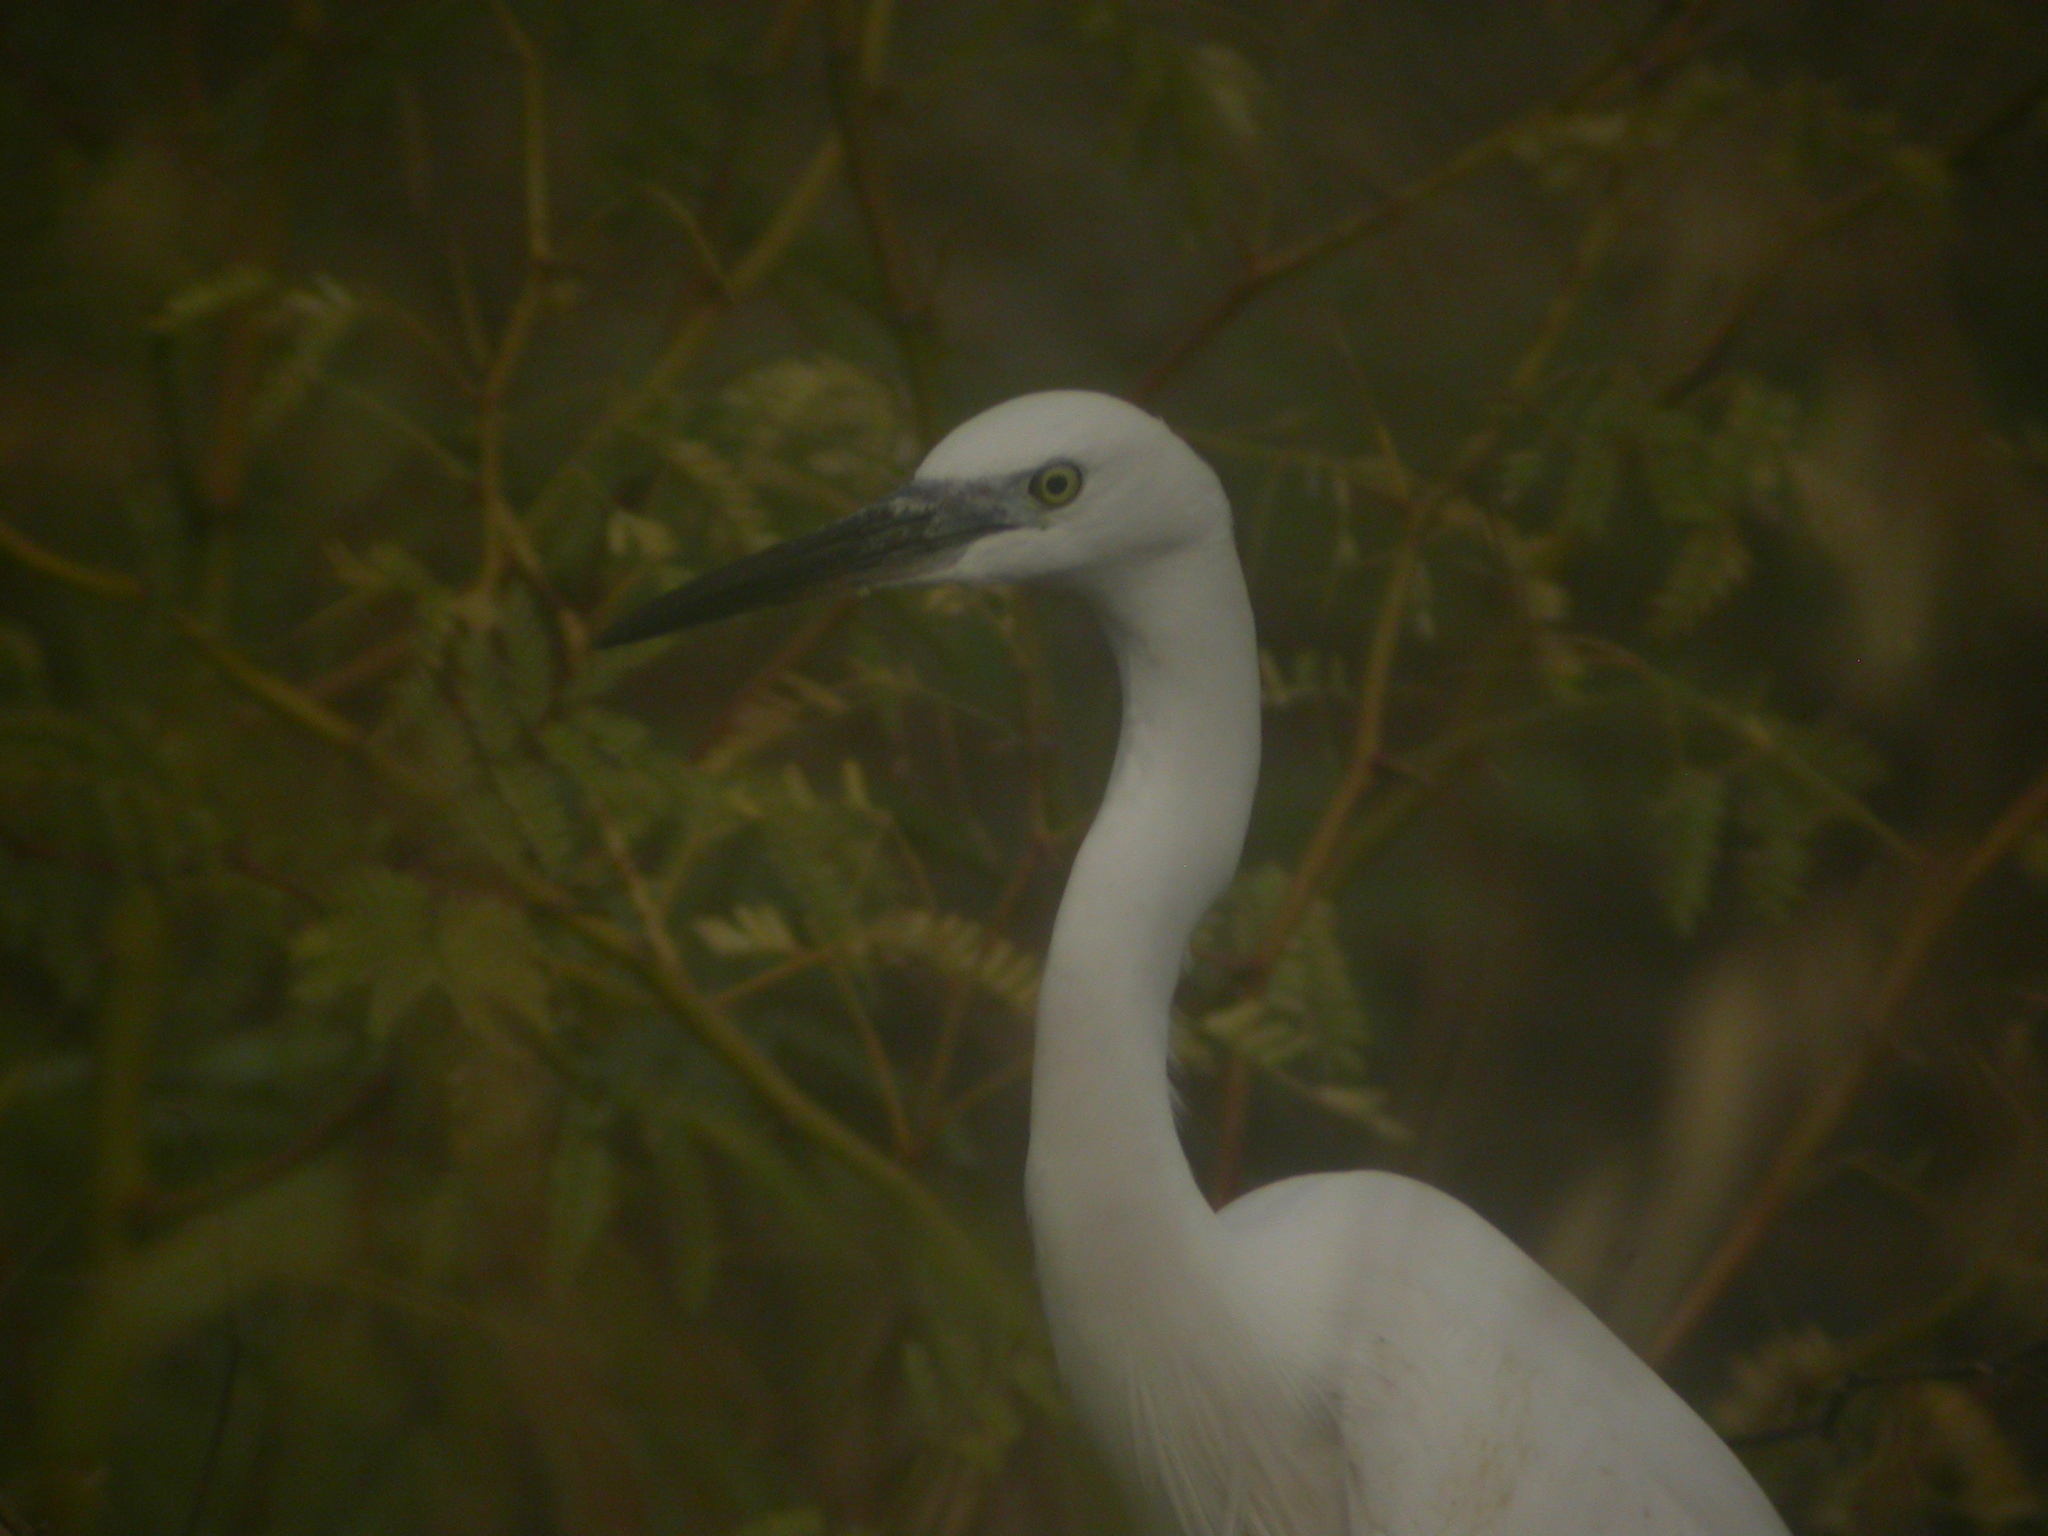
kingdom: Animalia
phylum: Chordata
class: Aves
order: Pelecaniformes
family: Ardeidae
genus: Egretta
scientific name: Egretta garzetta
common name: Little egret
